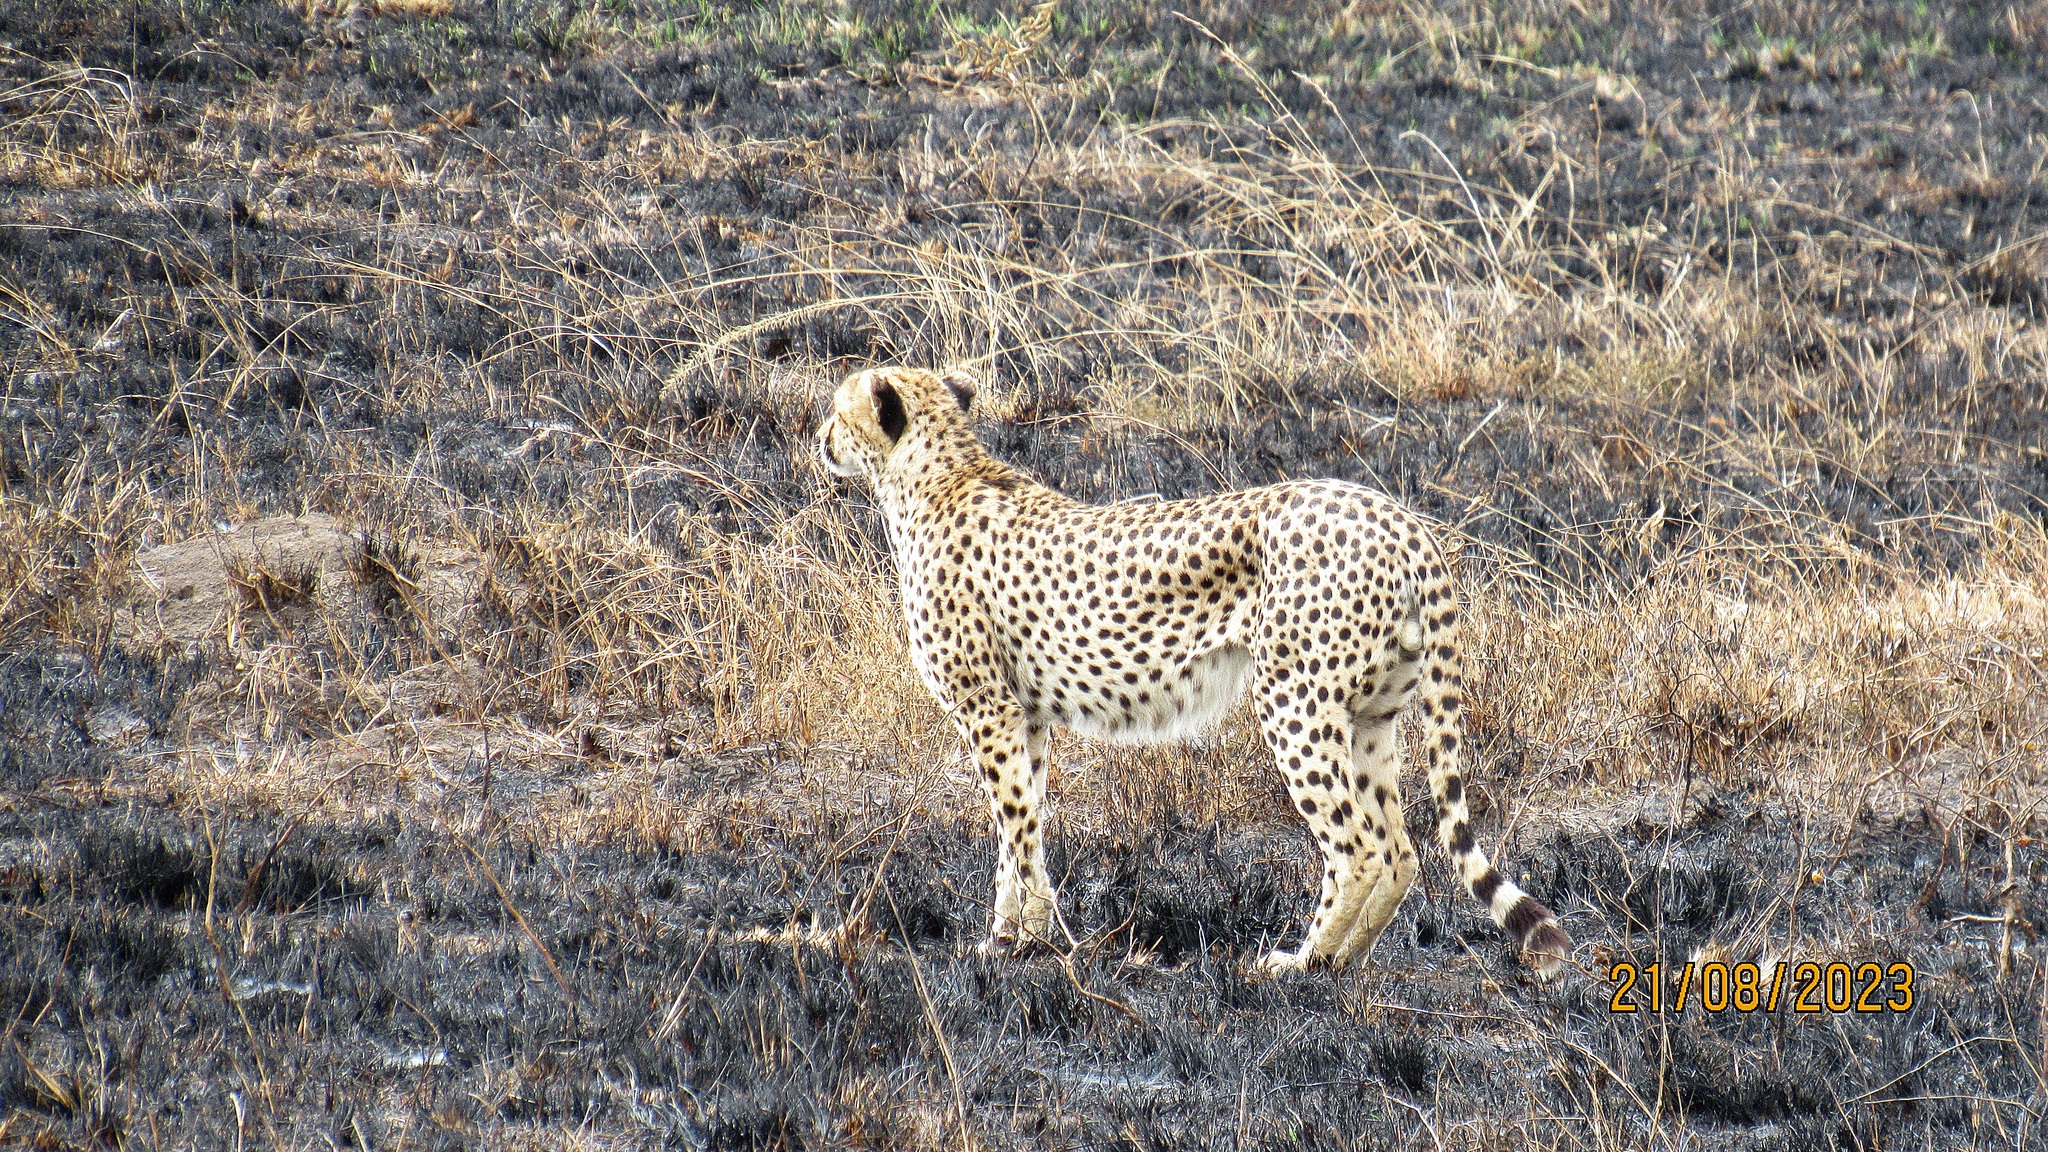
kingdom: Animalia
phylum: Chordata
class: Mammalia
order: Carnivora
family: Felidae
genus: Acinonyx
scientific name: Acinonyx jubatus
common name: Cheetah
